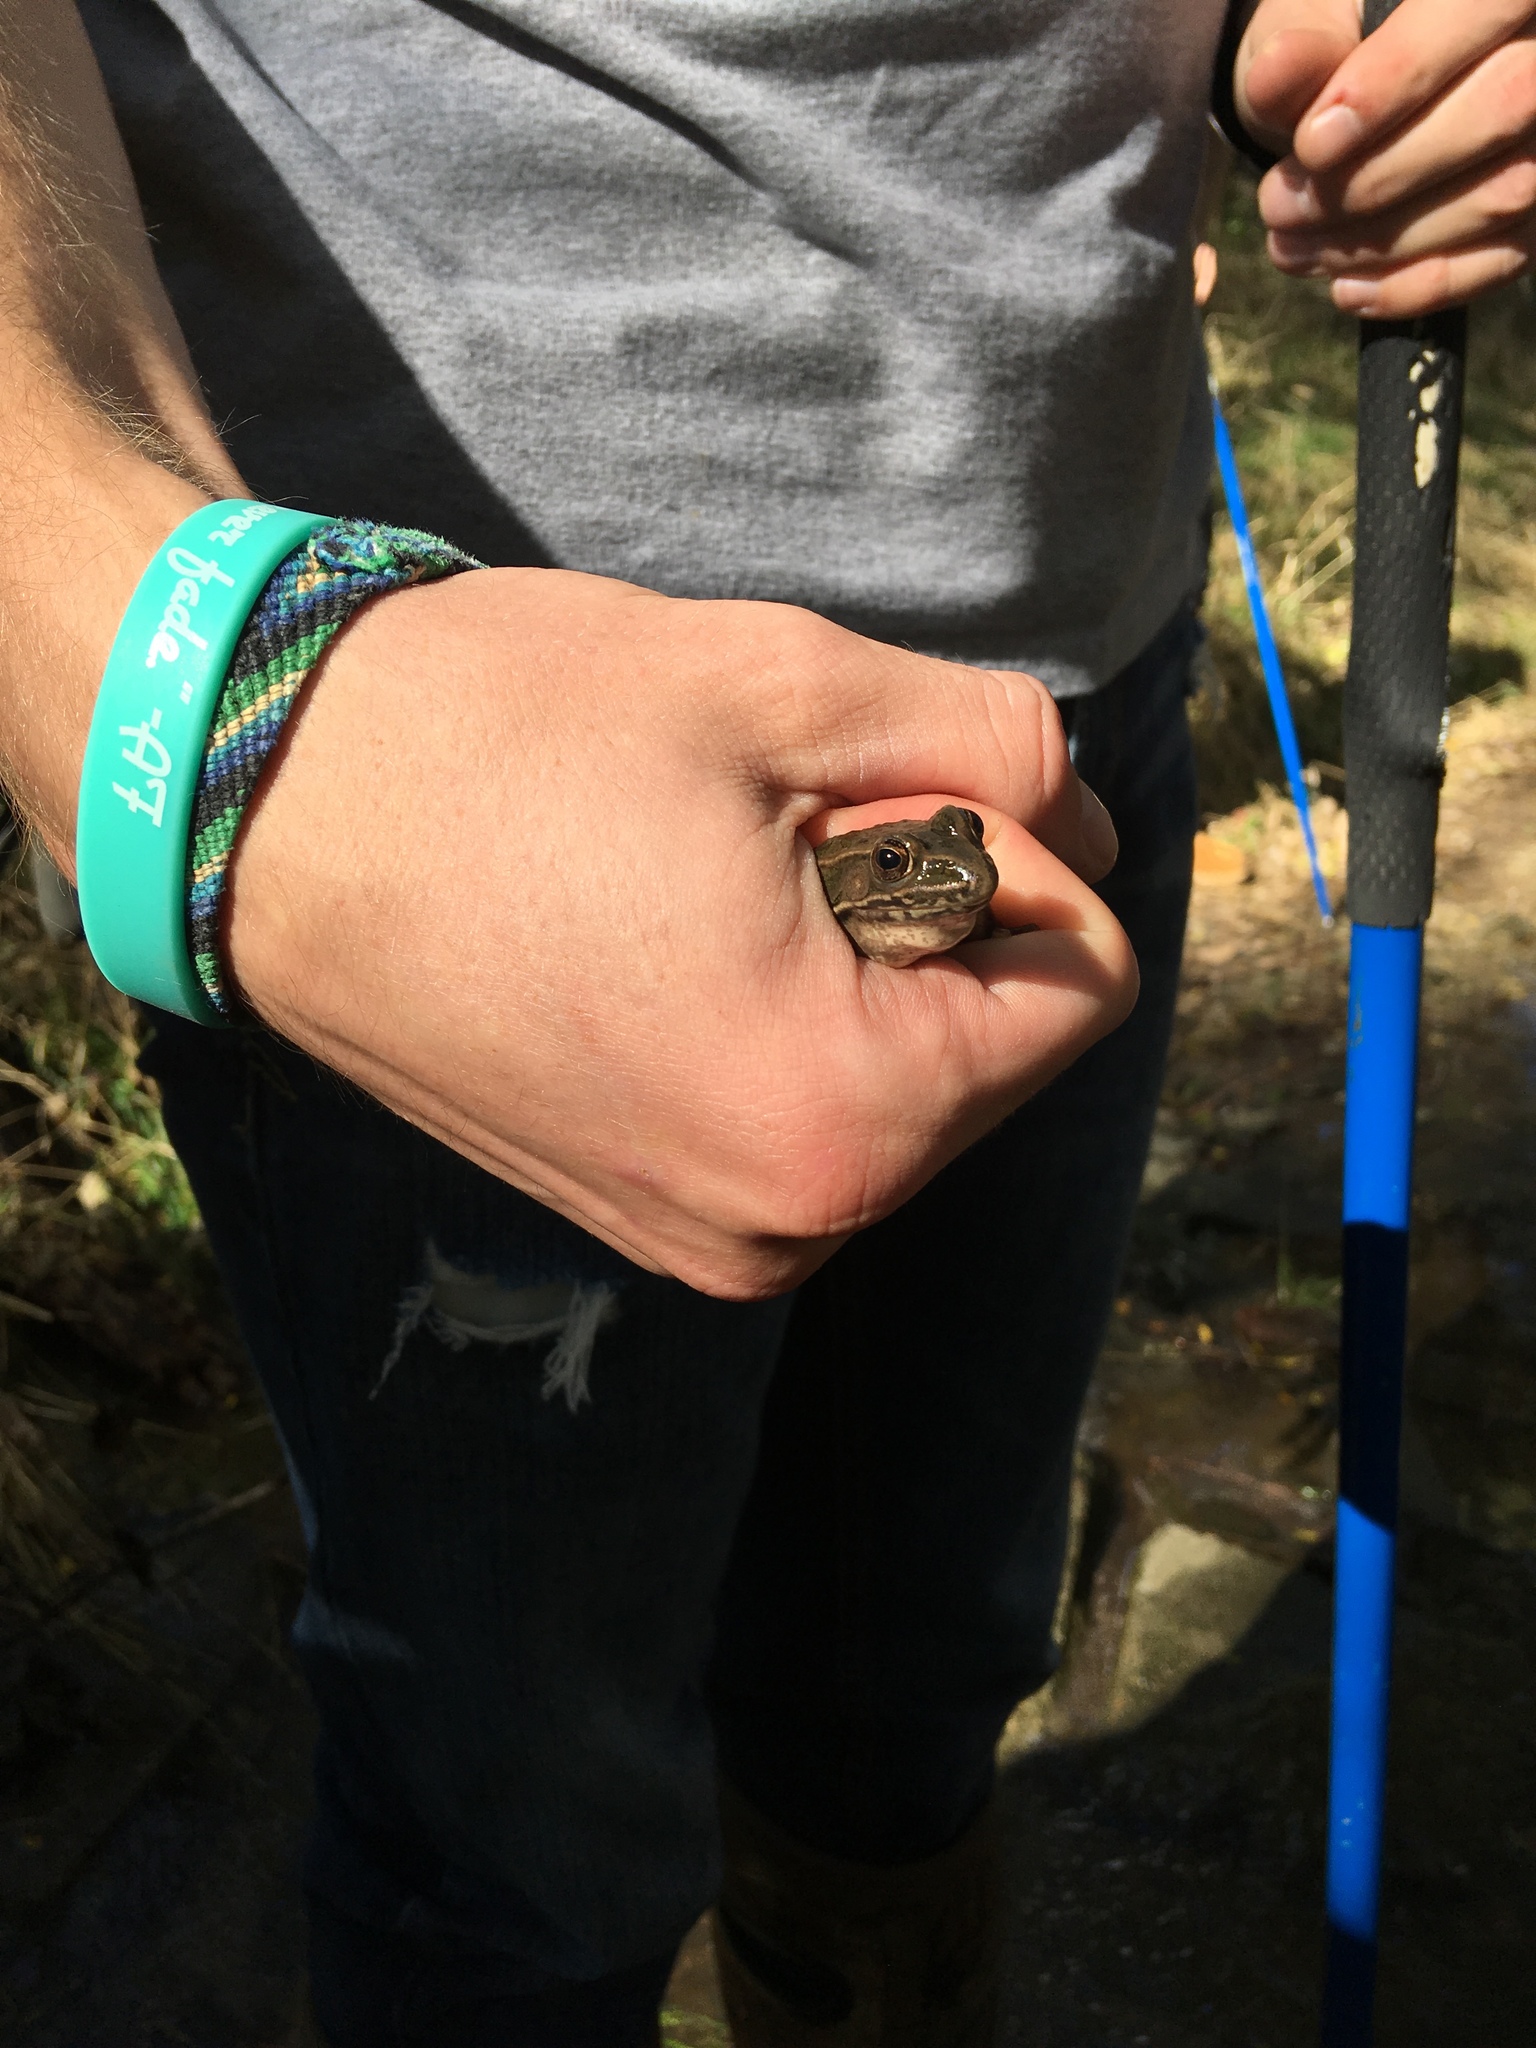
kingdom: Animalia
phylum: Chordata
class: Amphibia
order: Anura
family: Ranidae
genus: Lithobates
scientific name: Lithobates blairi
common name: Plains leopard frog
